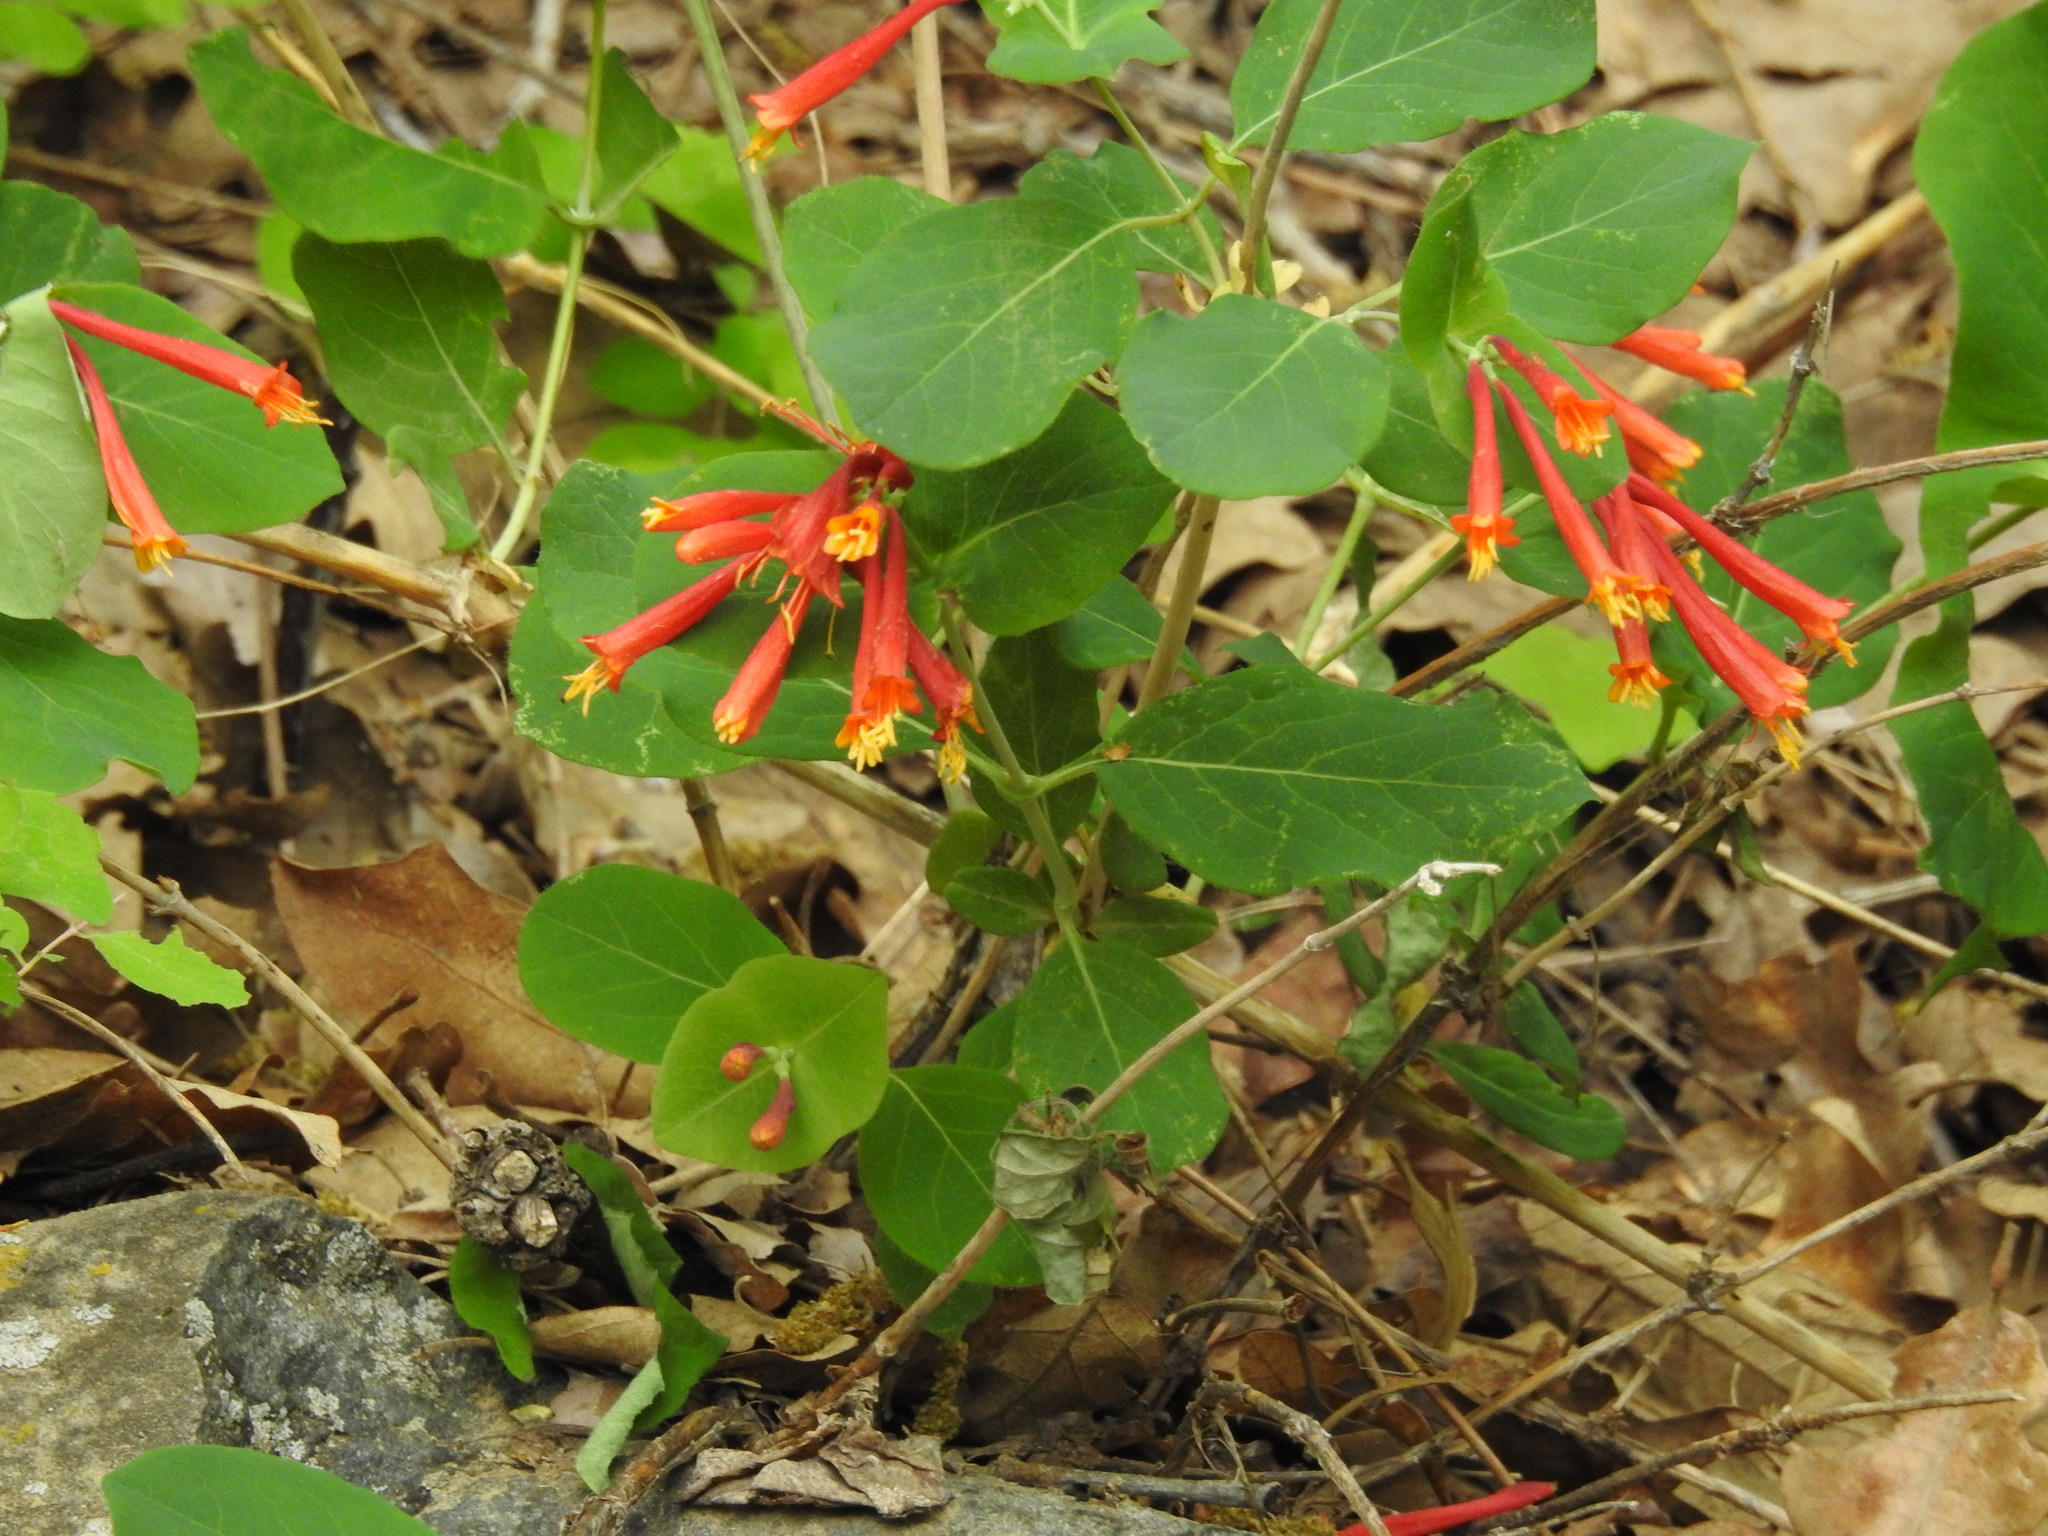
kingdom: Plantae
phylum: Tracheophyta
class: Magnoliopsida
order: Dipsacales
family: Caprifoliaceae
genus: Lonicera
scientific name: Lonicera arizonica
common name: Arizona honeysuckle
